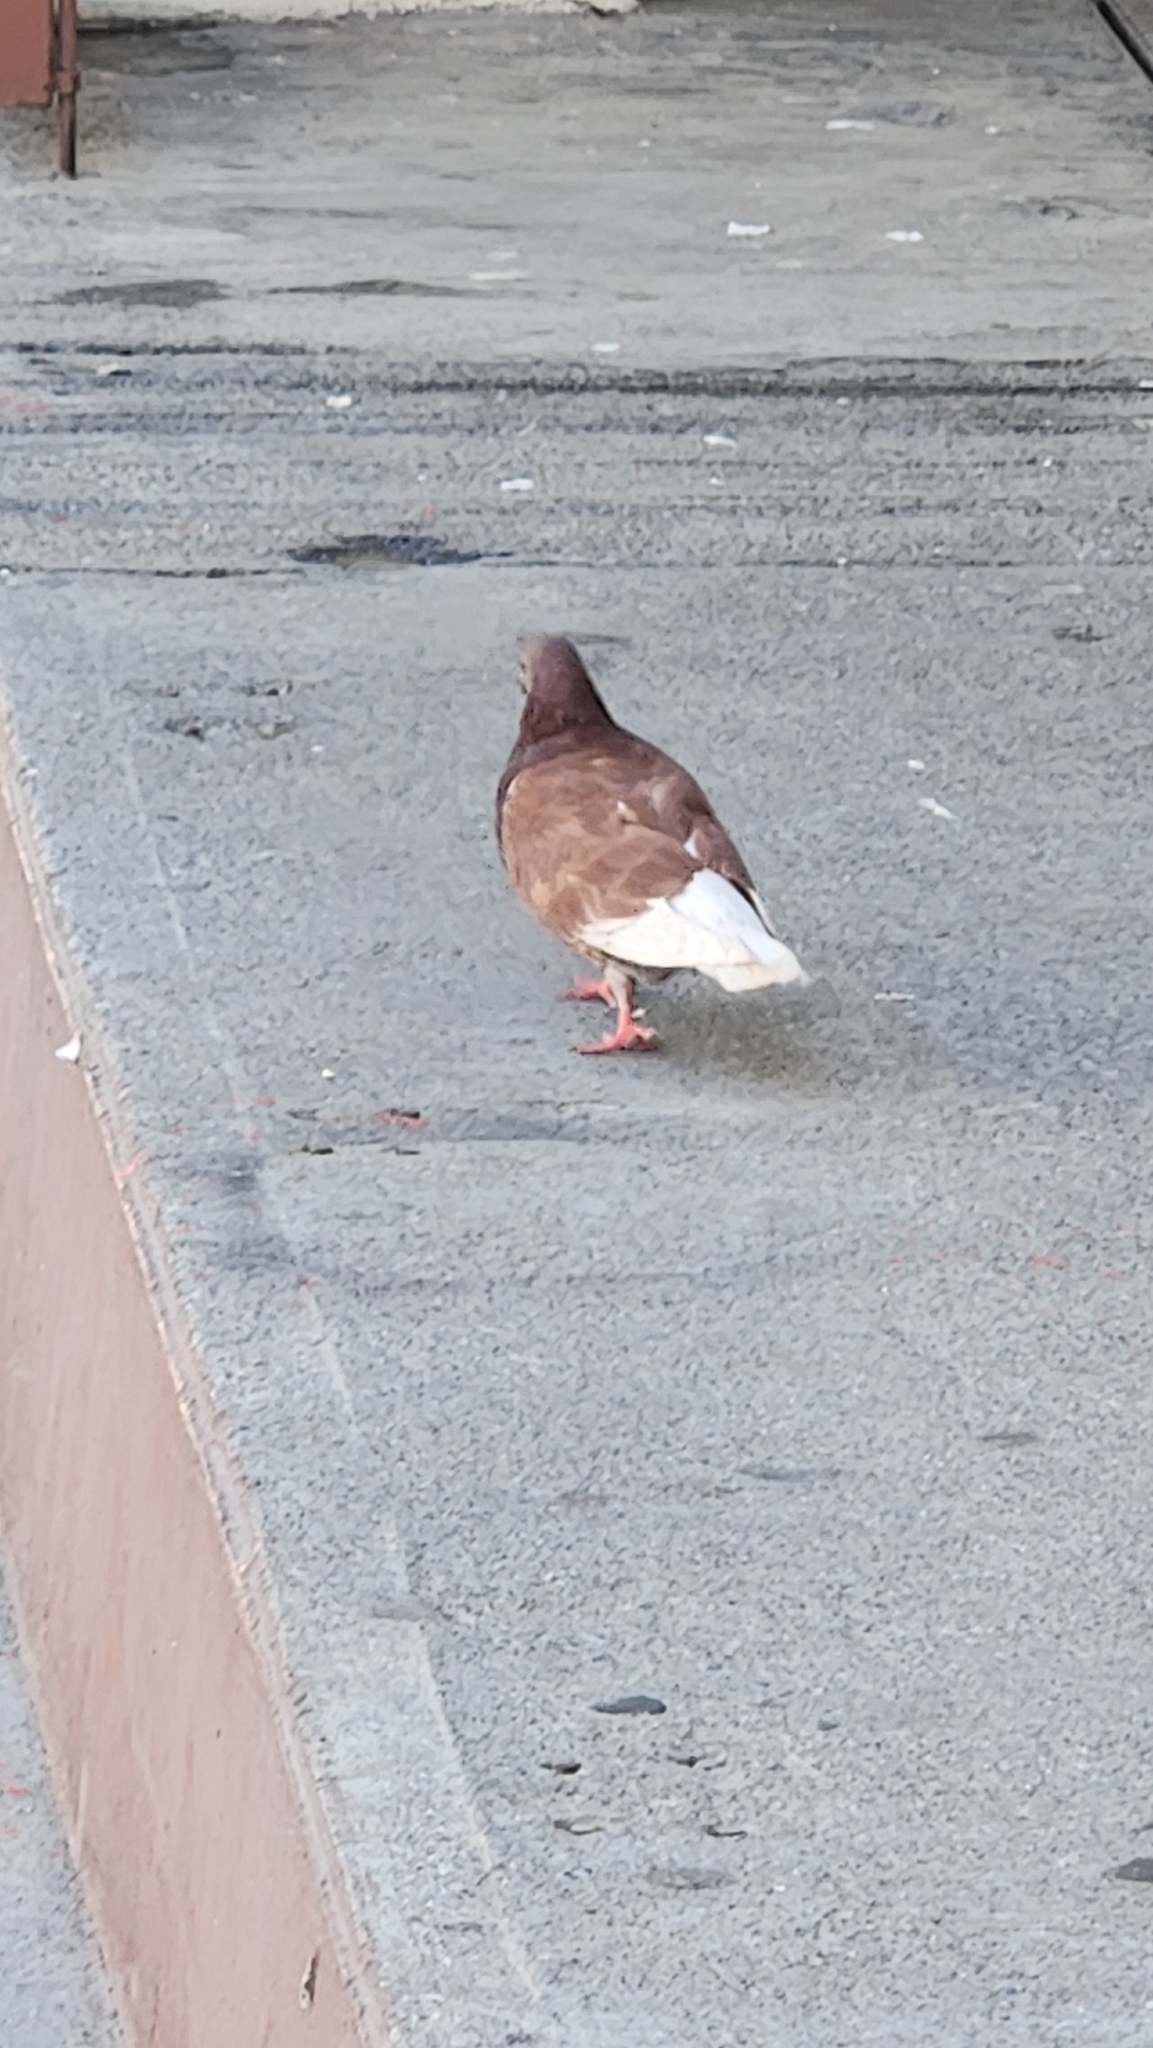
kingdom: Animalia
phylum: Chordata
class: Aves
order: Columbiformes
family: Columbidae
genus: Columba
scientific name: Columba livia
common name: Rock pigeon
